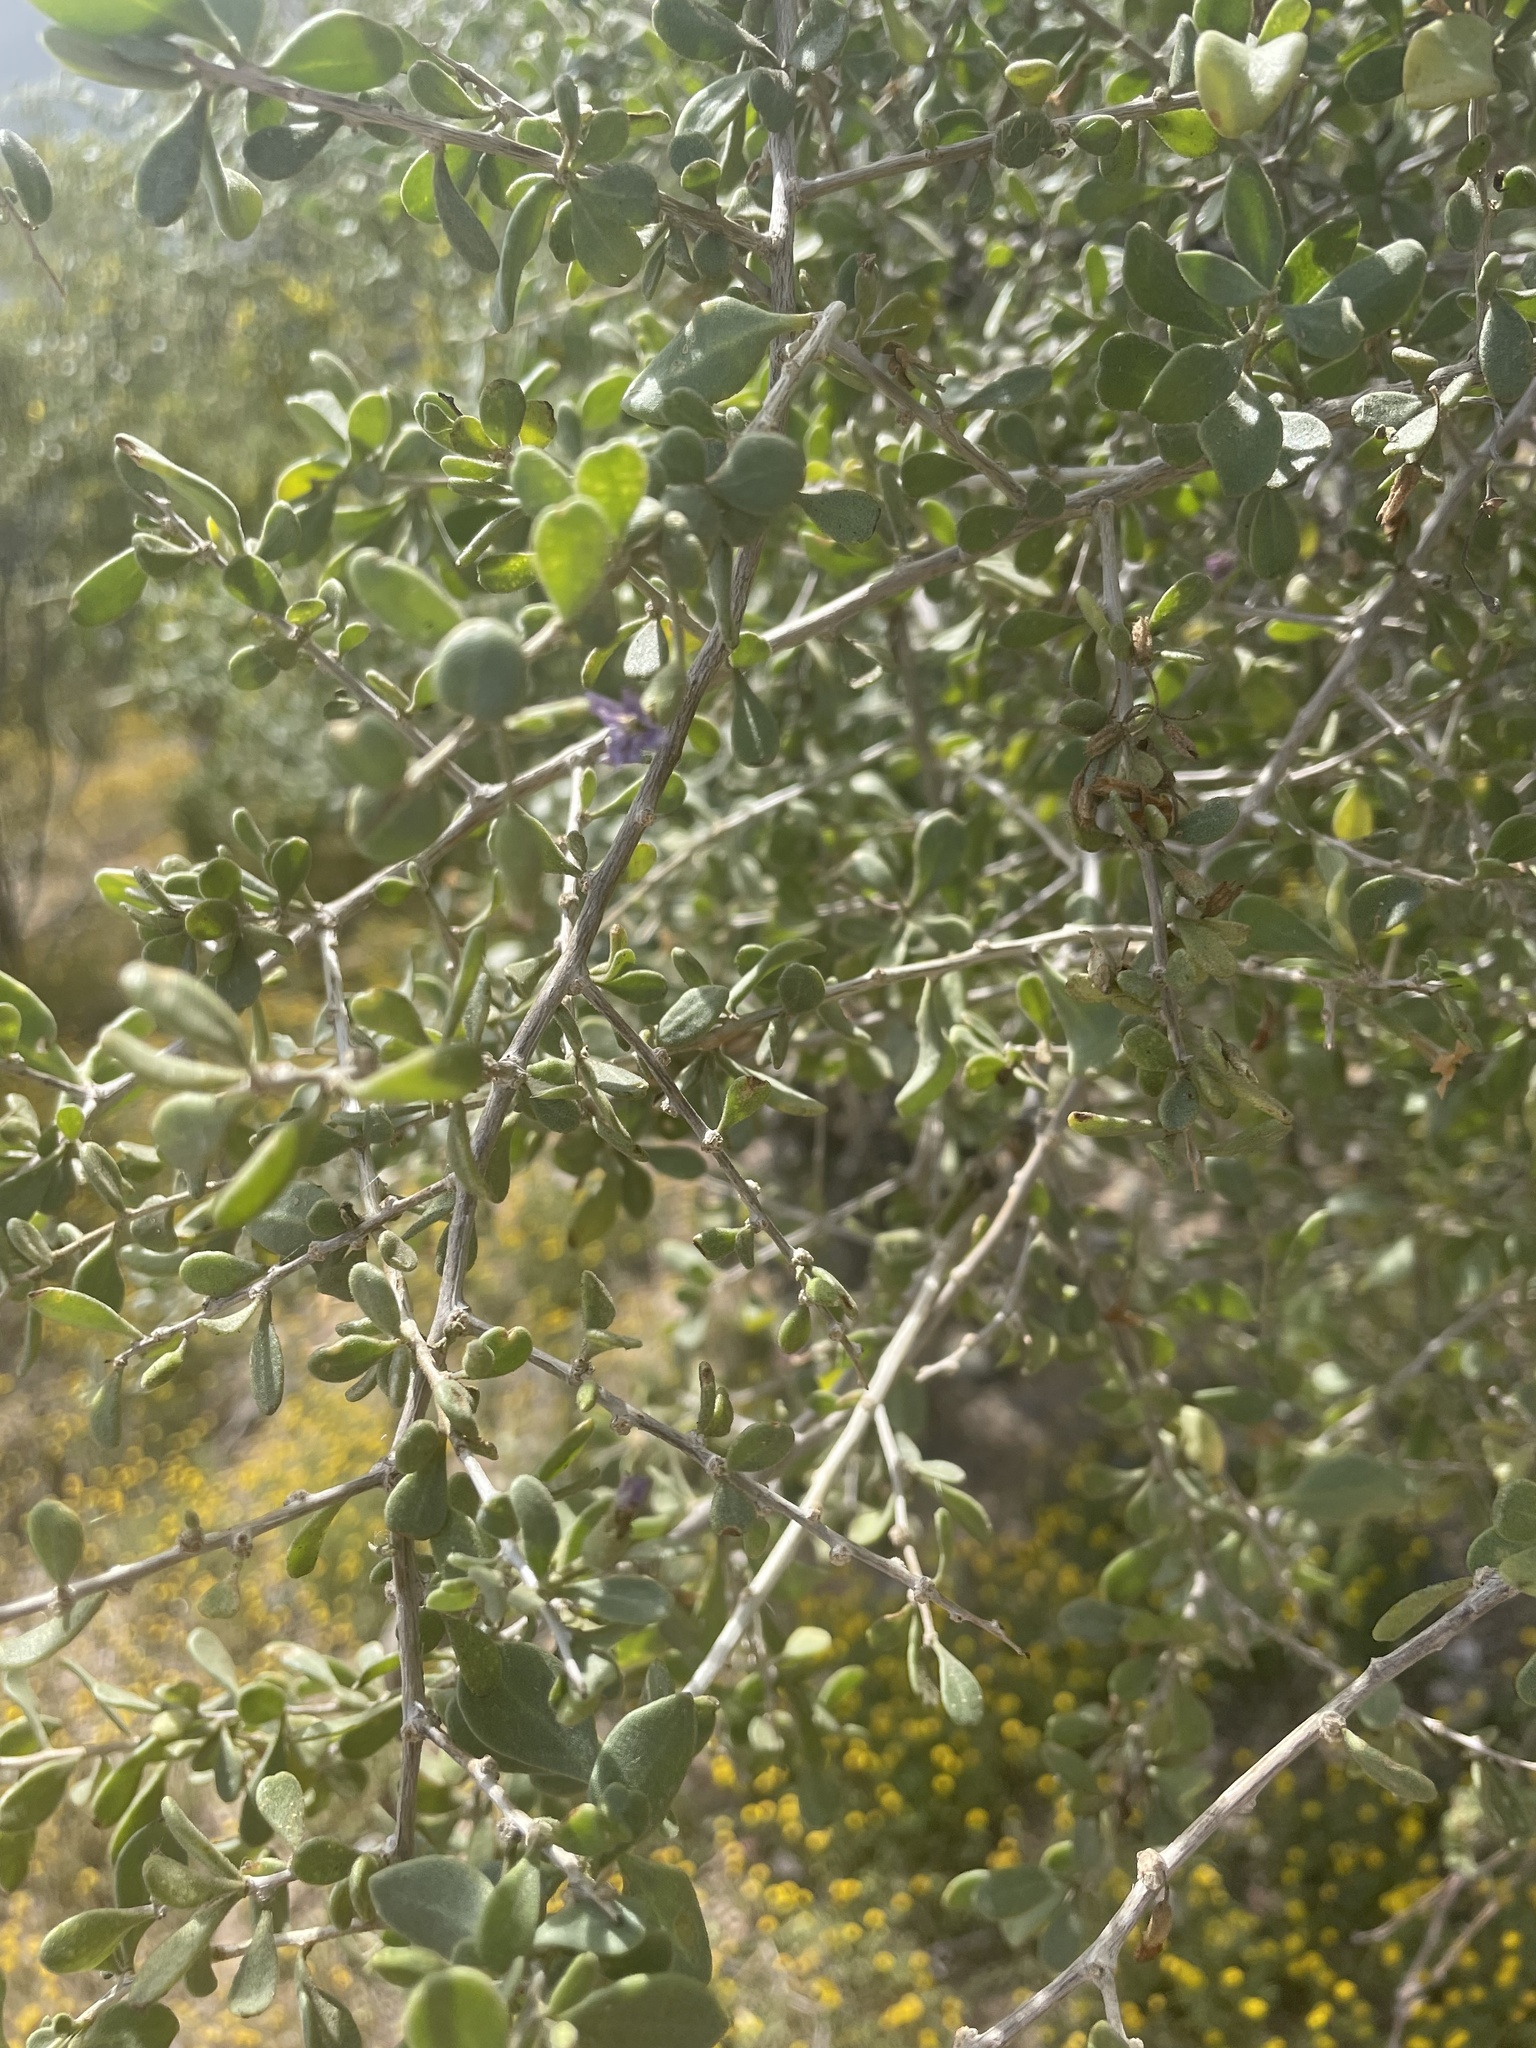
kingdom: Plantae
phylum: Tracheophyta
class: Magnoliopsida
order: Solanales
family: Solanaceae
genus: Lycium
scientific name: Lycium fremontii
